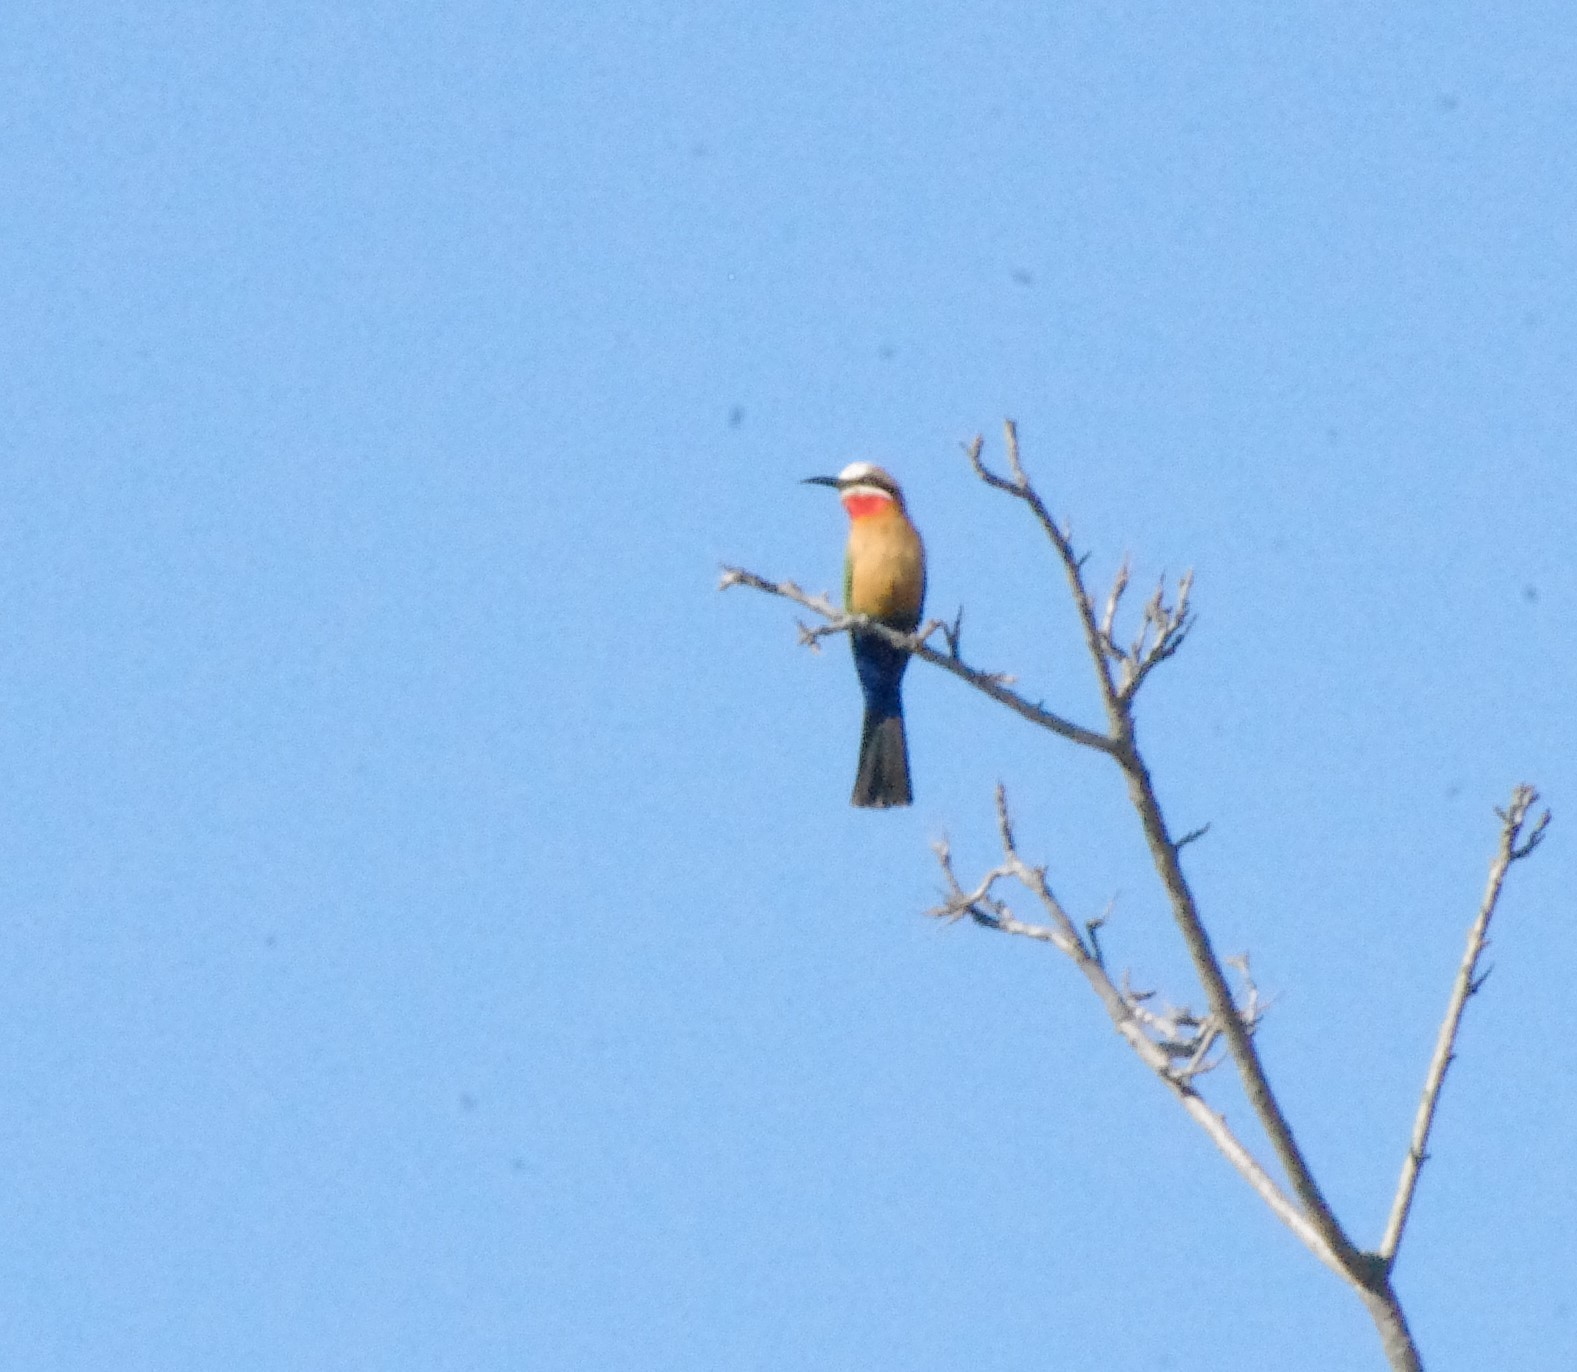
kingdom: Animalia
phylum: Chordata
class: Aves
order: Coraciiformes
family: Meropidae
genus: Merops
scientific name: Merops bullockoides
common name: White-fronted bee-eater
